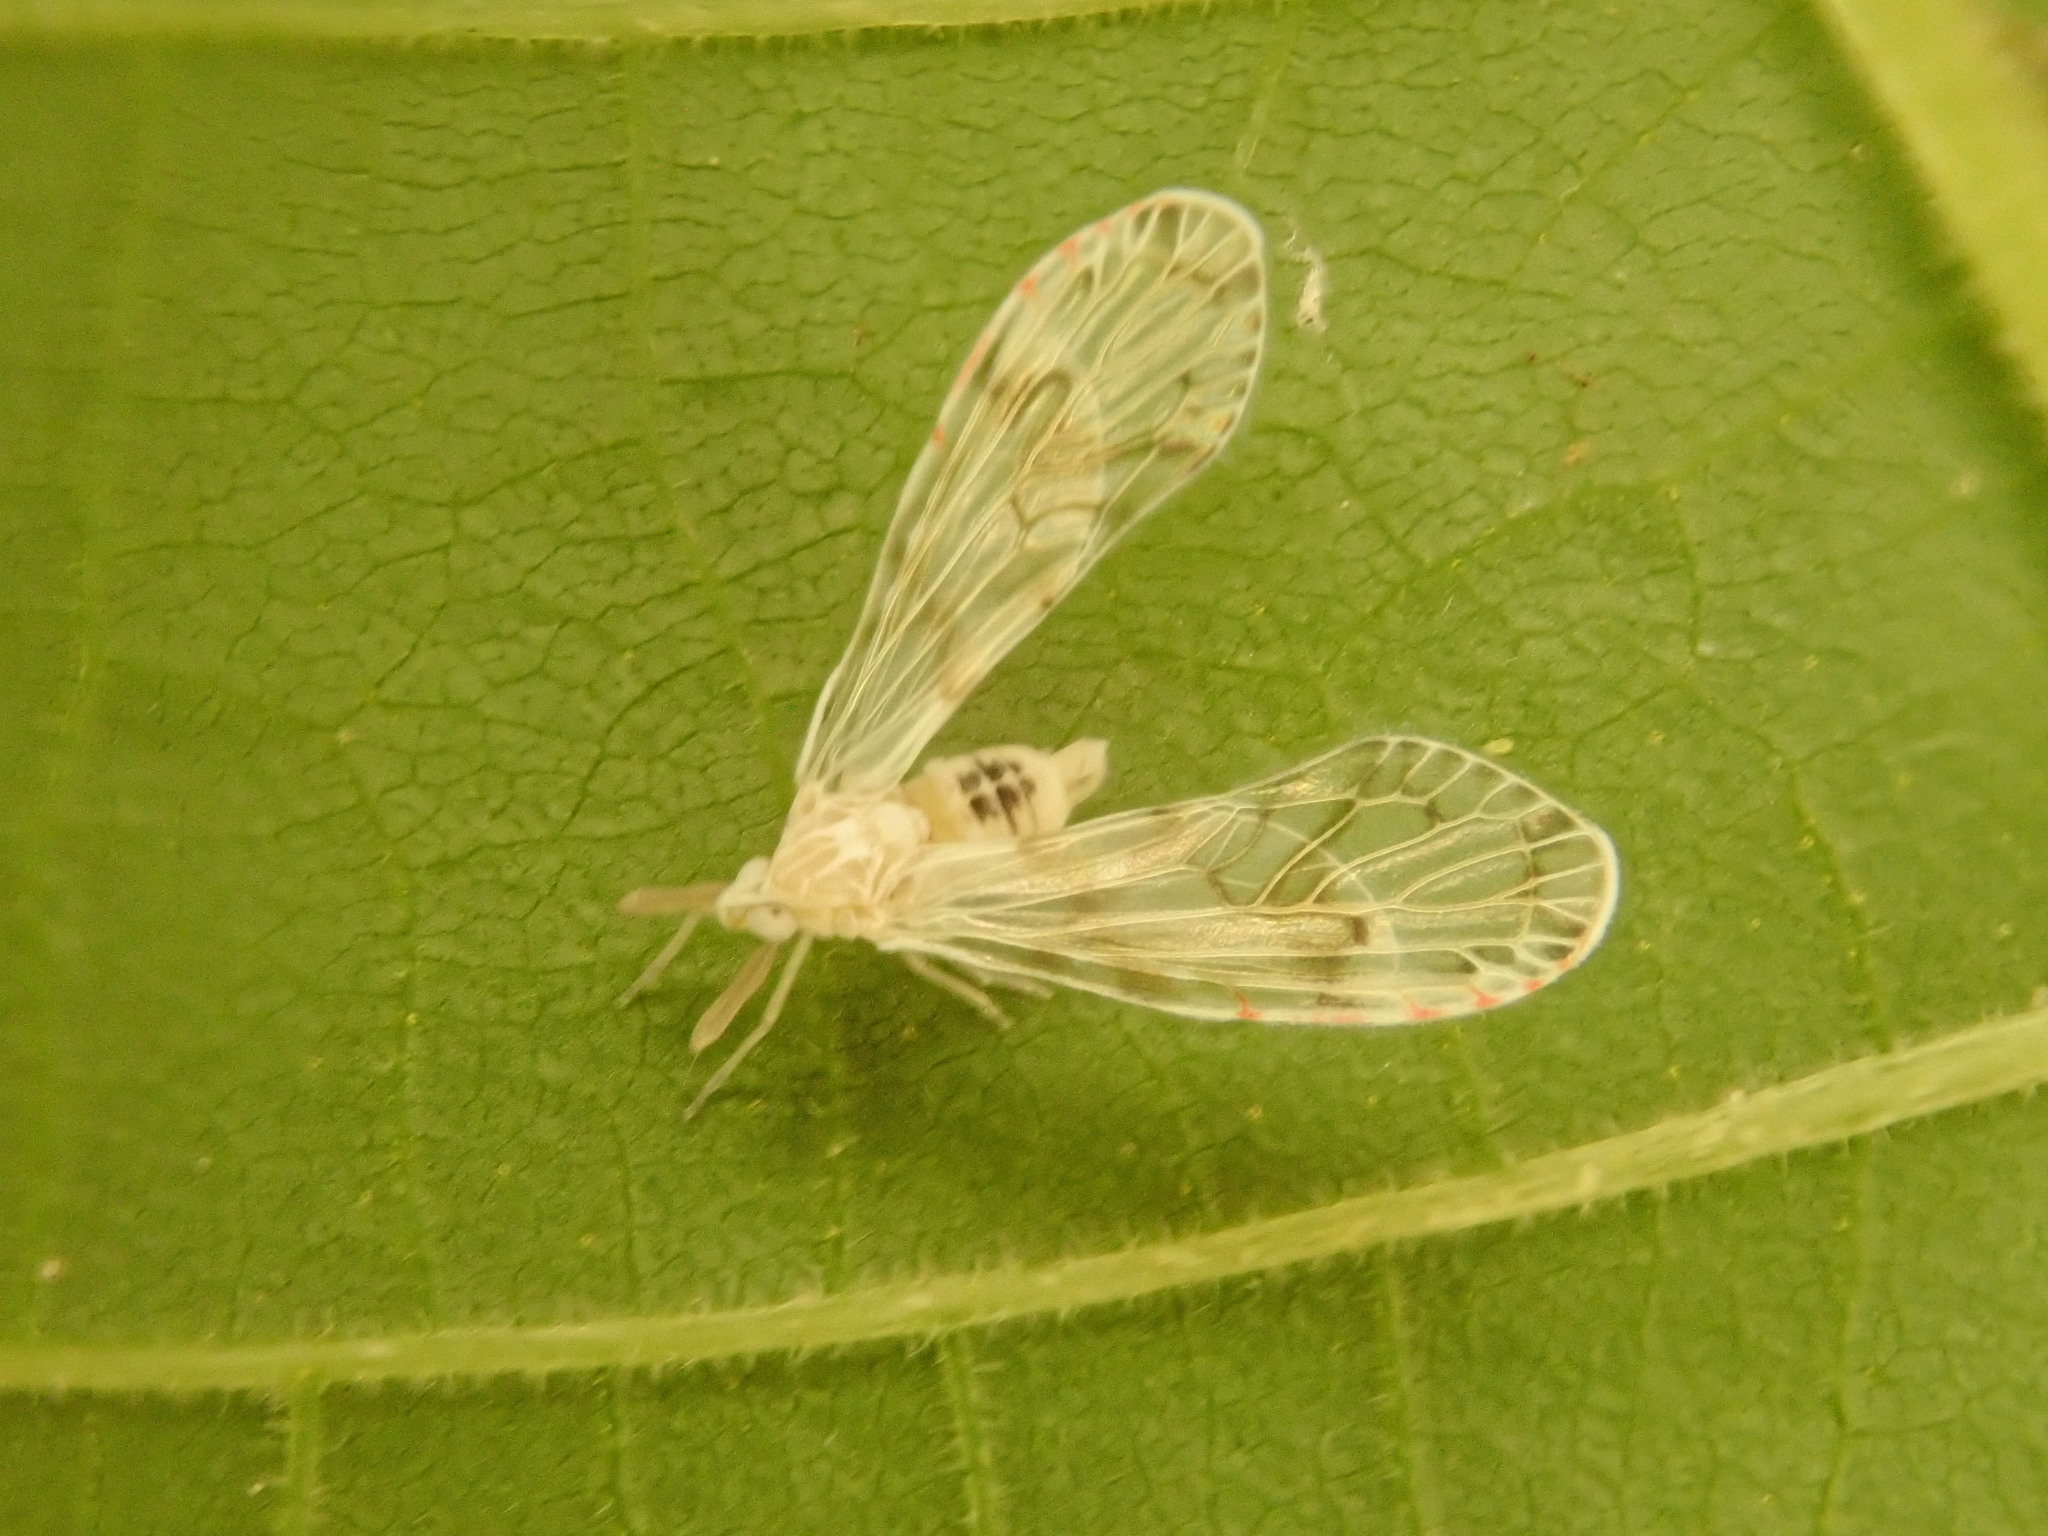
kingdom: Animalia
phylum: Arthropoda
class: Insecta
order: Hemiptera
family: Derbidae
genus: Anotia
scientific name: Anotia robertsonii
